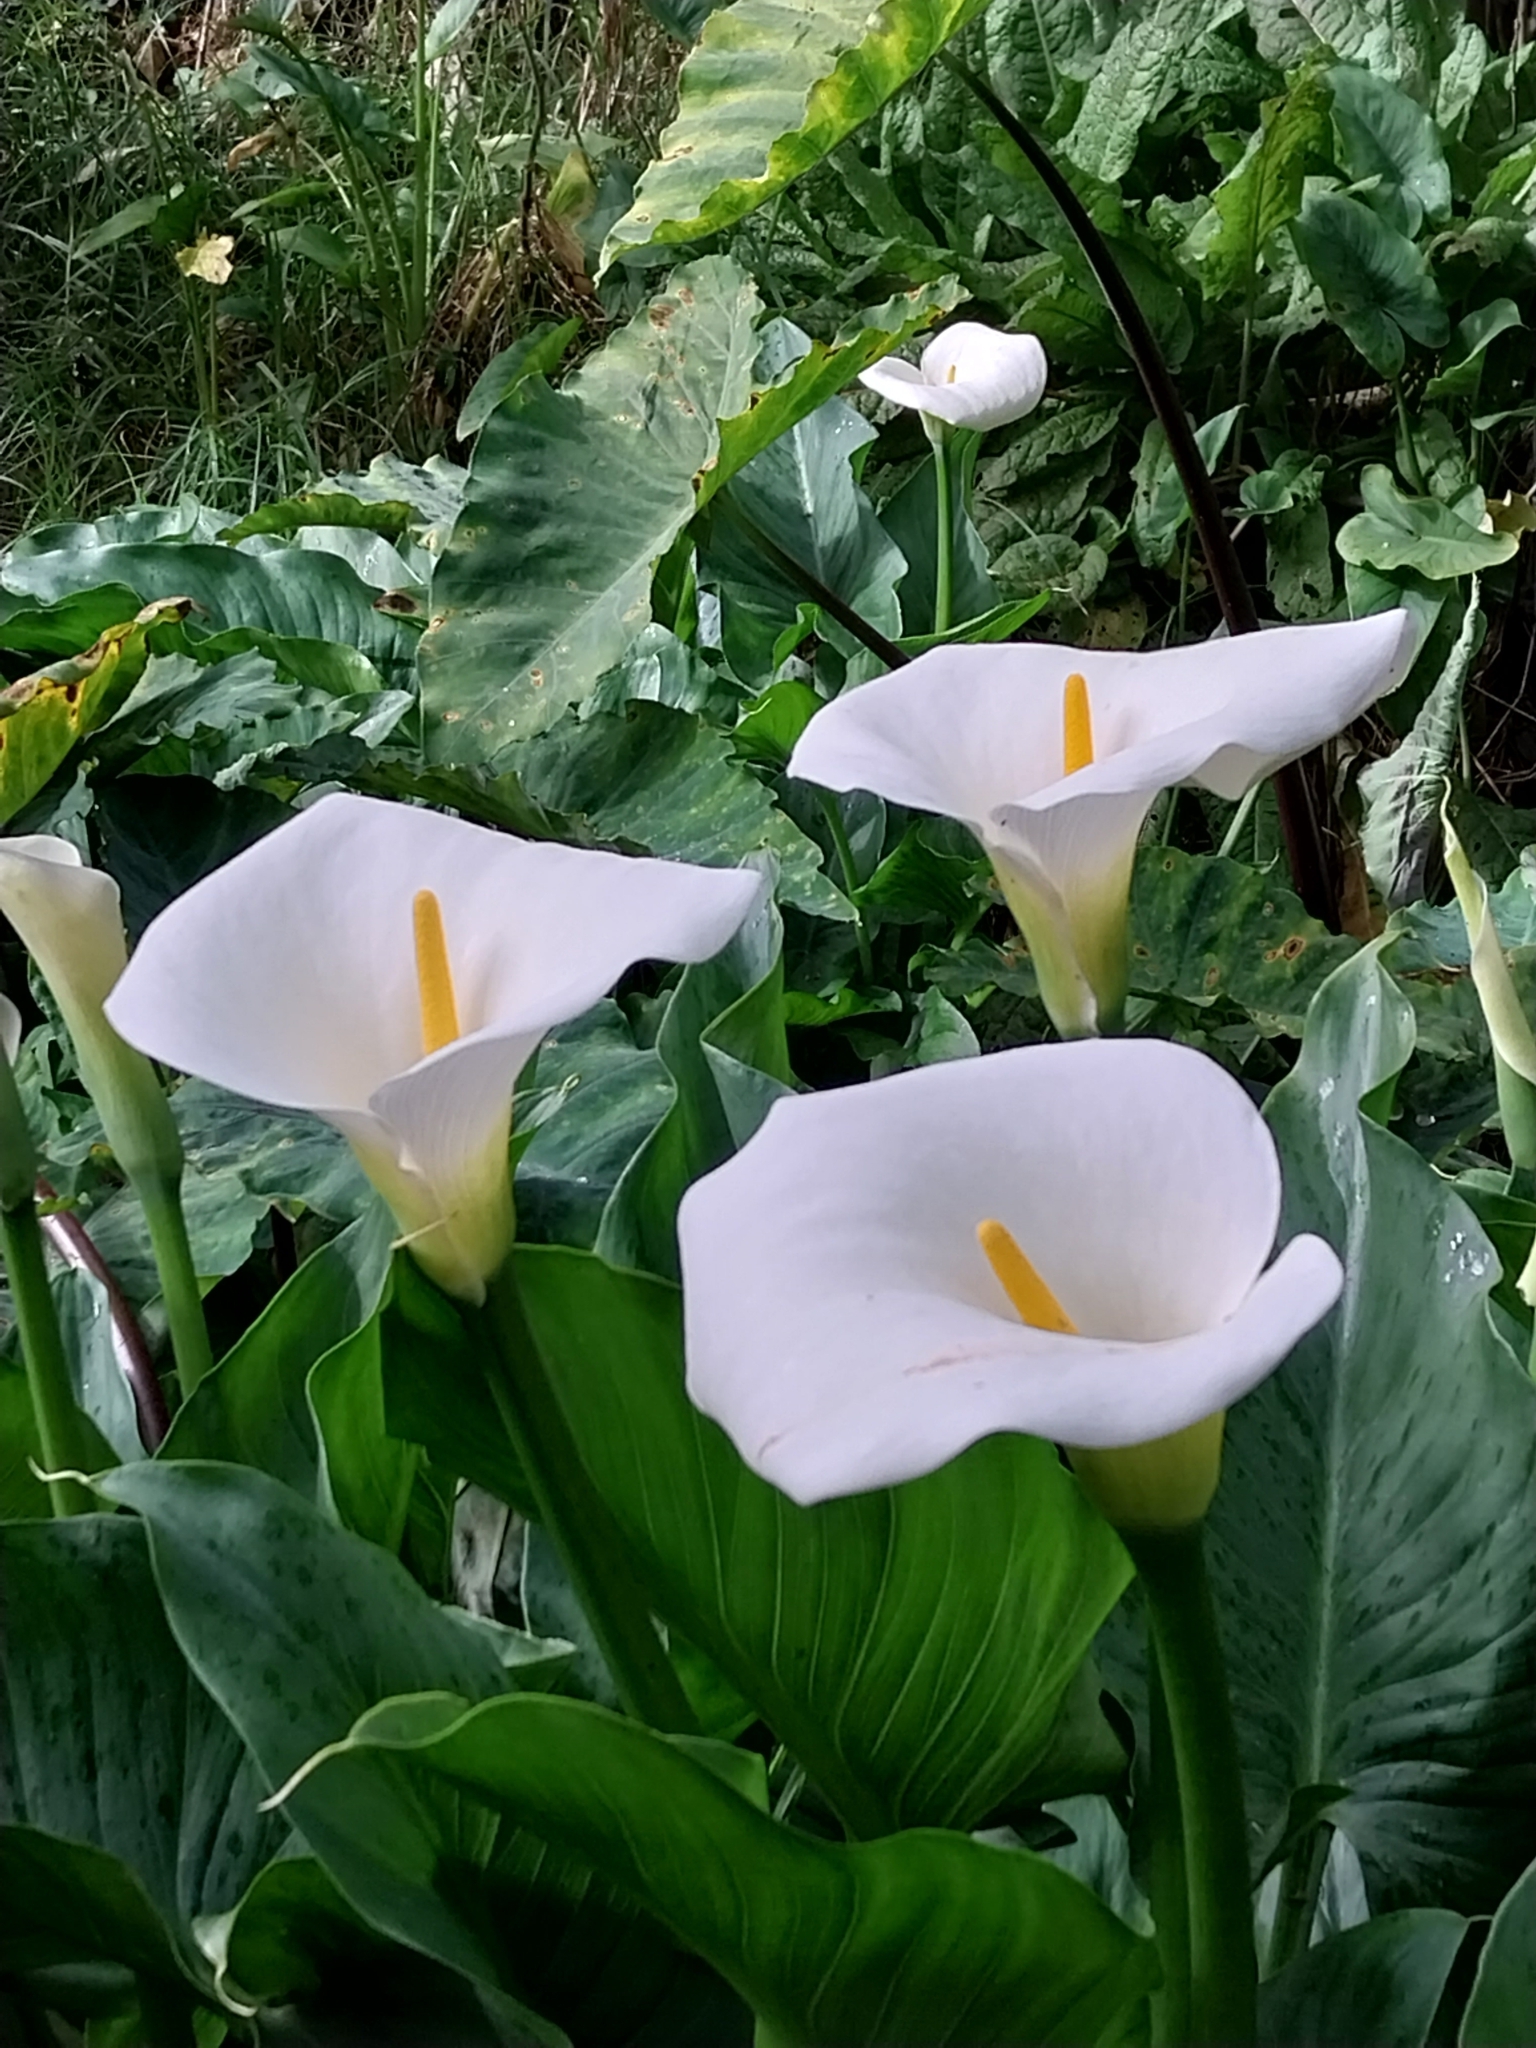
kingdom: Plantae
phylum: Tracheophyta
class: Liliopsida
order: Alismatales
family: Araceae
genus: Zantedeschia
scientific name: Zantedeschia aethiopica
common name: Altar-lily
